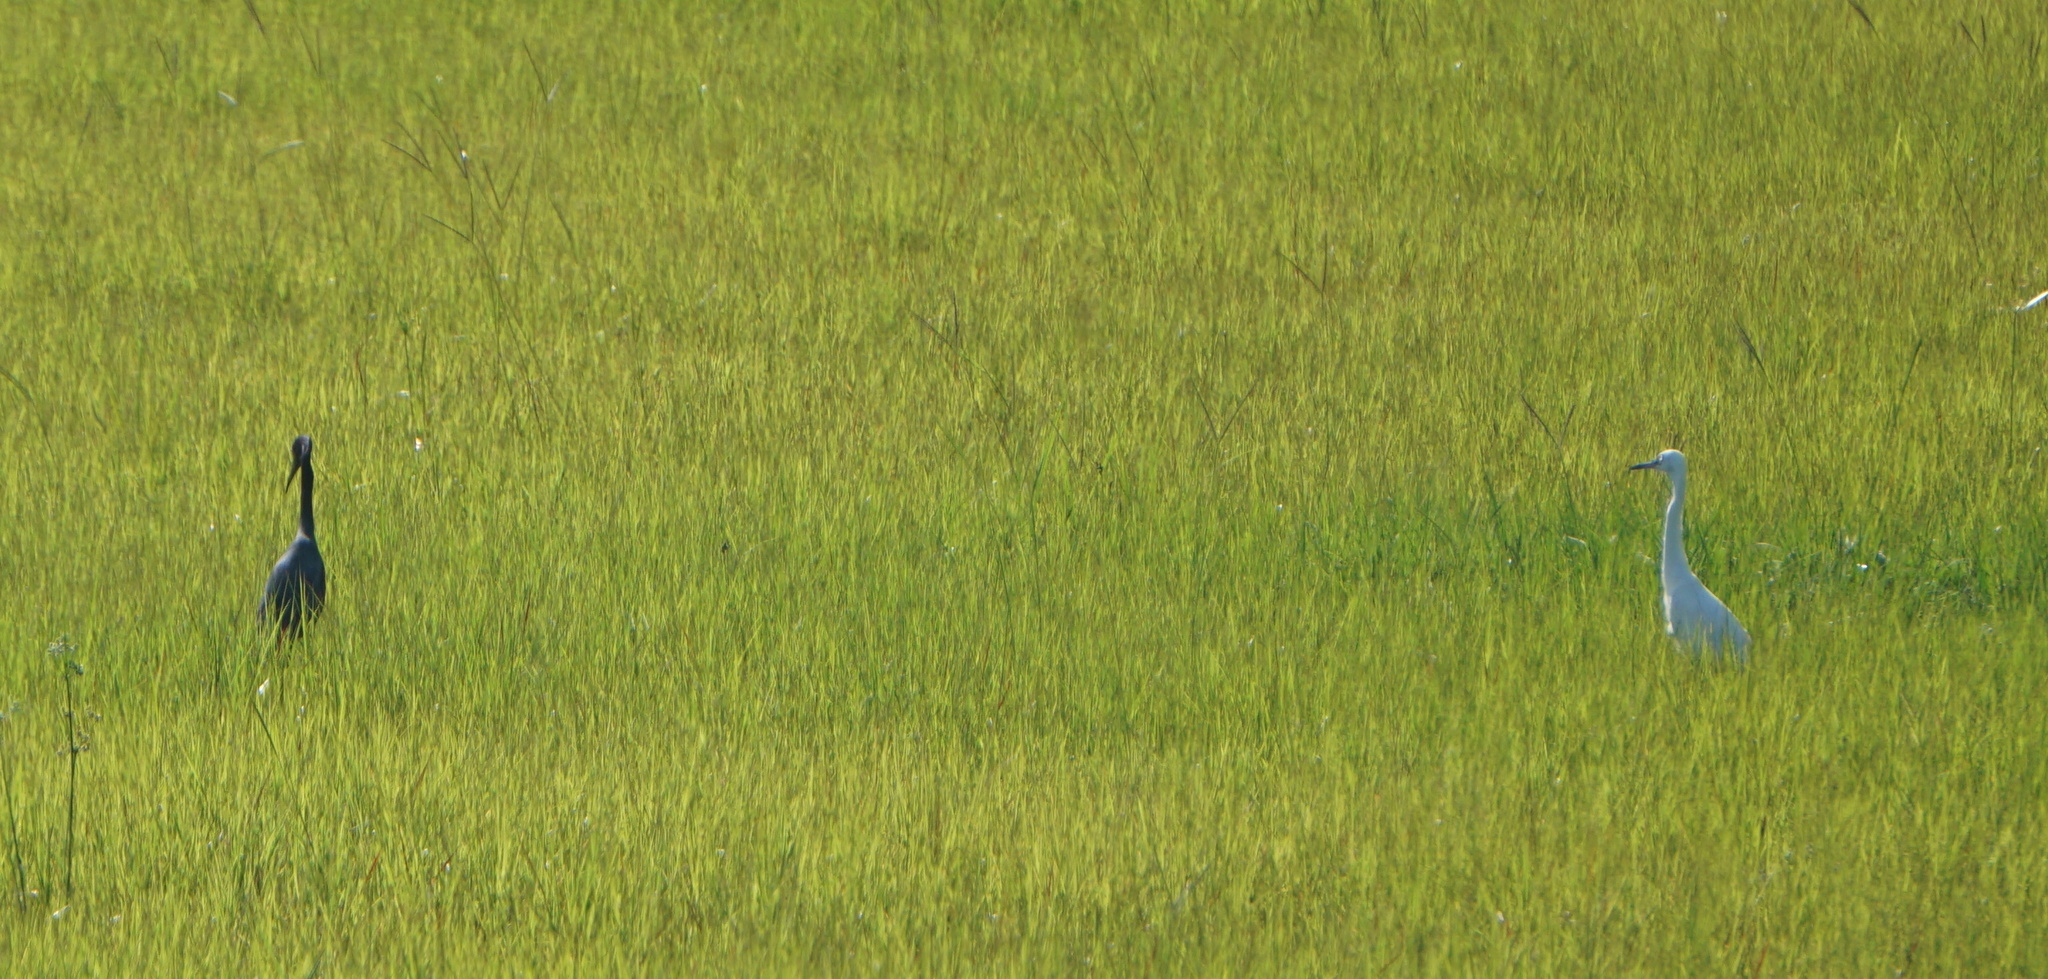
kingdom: Animalia
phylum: Chordata
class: Aves
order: Pelecaniformes
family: Ardeidae
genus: Egretta
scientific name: Egretta caerulea
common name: Little blue heron
